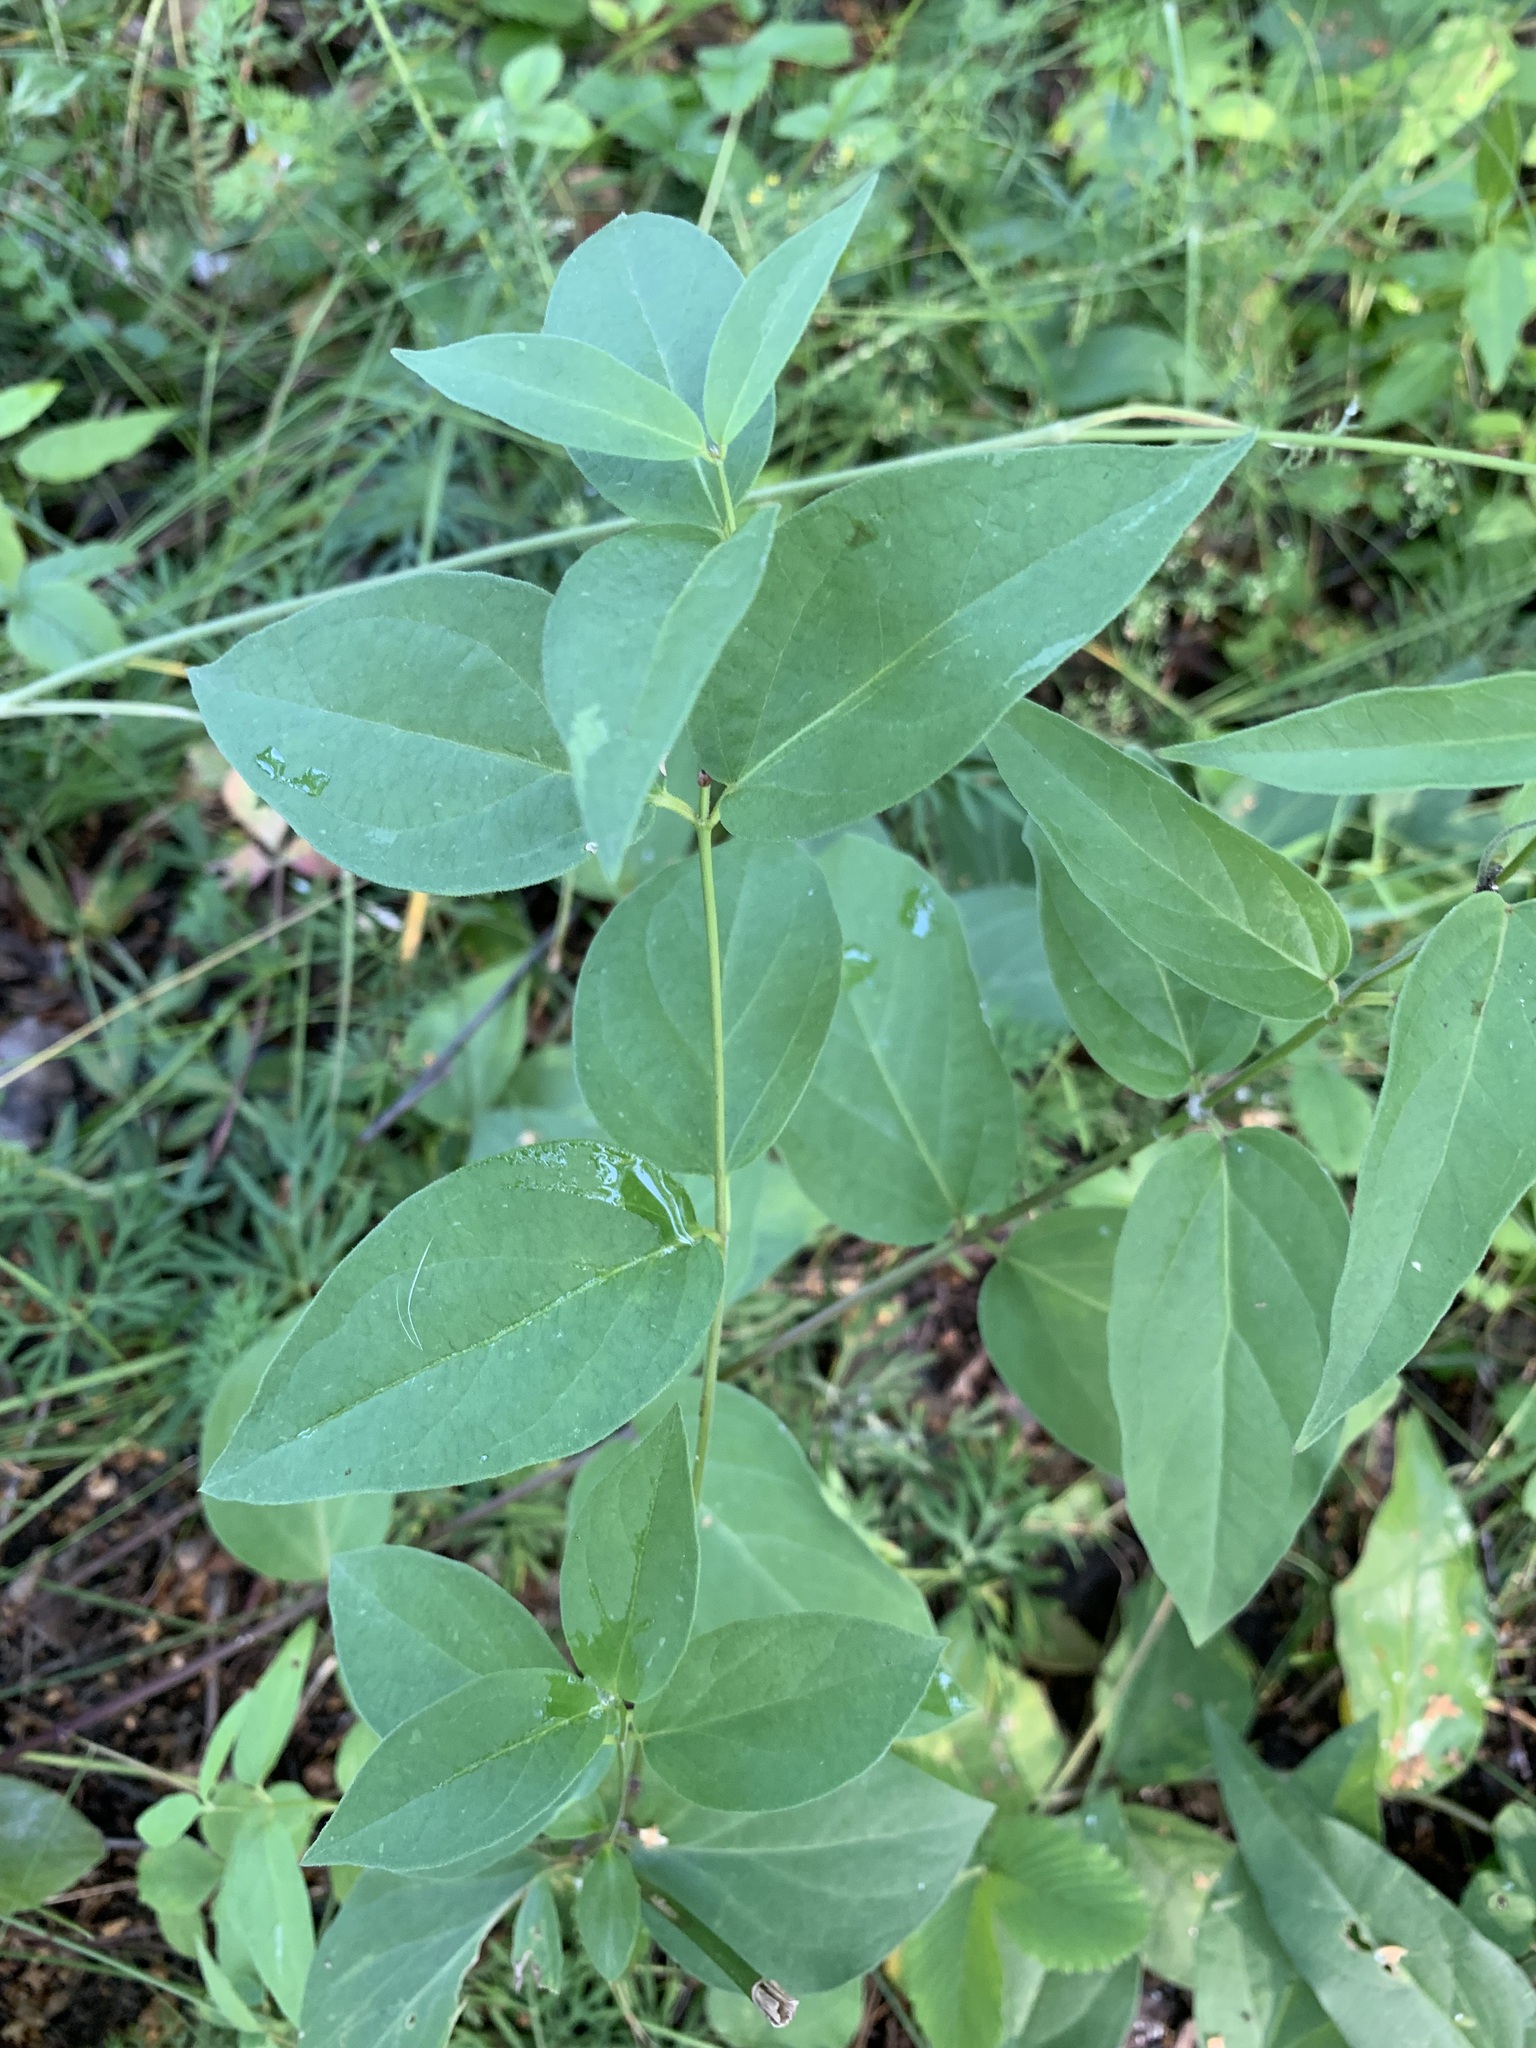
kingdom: Plantae
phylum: Tracheophyta
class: Magnoliopsida
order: Gentianales
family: Apocynaceae
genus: Vincetoxicum
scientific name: Vincetoxicum hirundinaria
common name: White swallowwort
